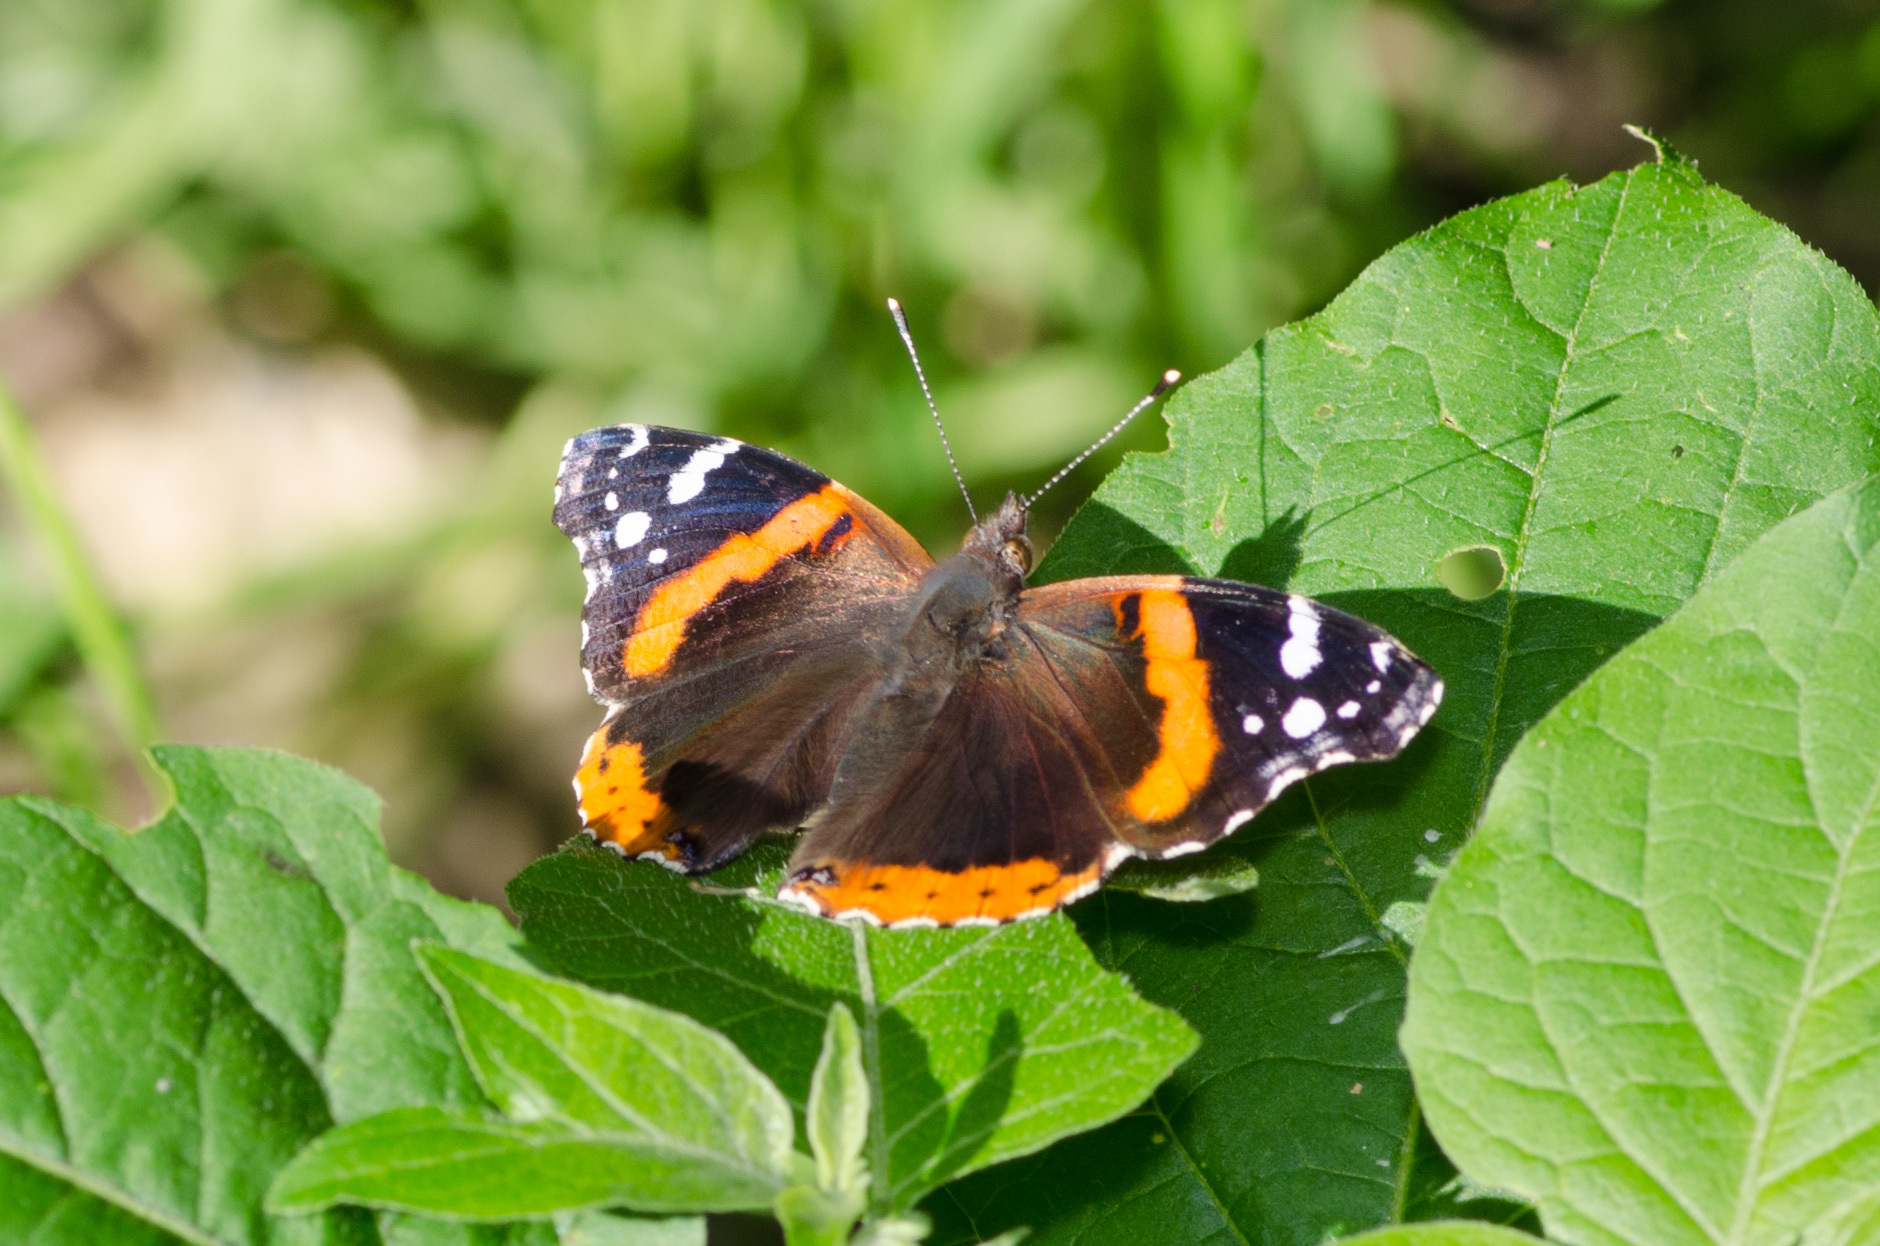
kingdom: Animalia
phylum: Arthropoda
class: Insecta
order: Lepidoptera
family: Nymphalidae
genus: Vanessa
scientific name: Vanessa atalanta
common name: Red admiral
